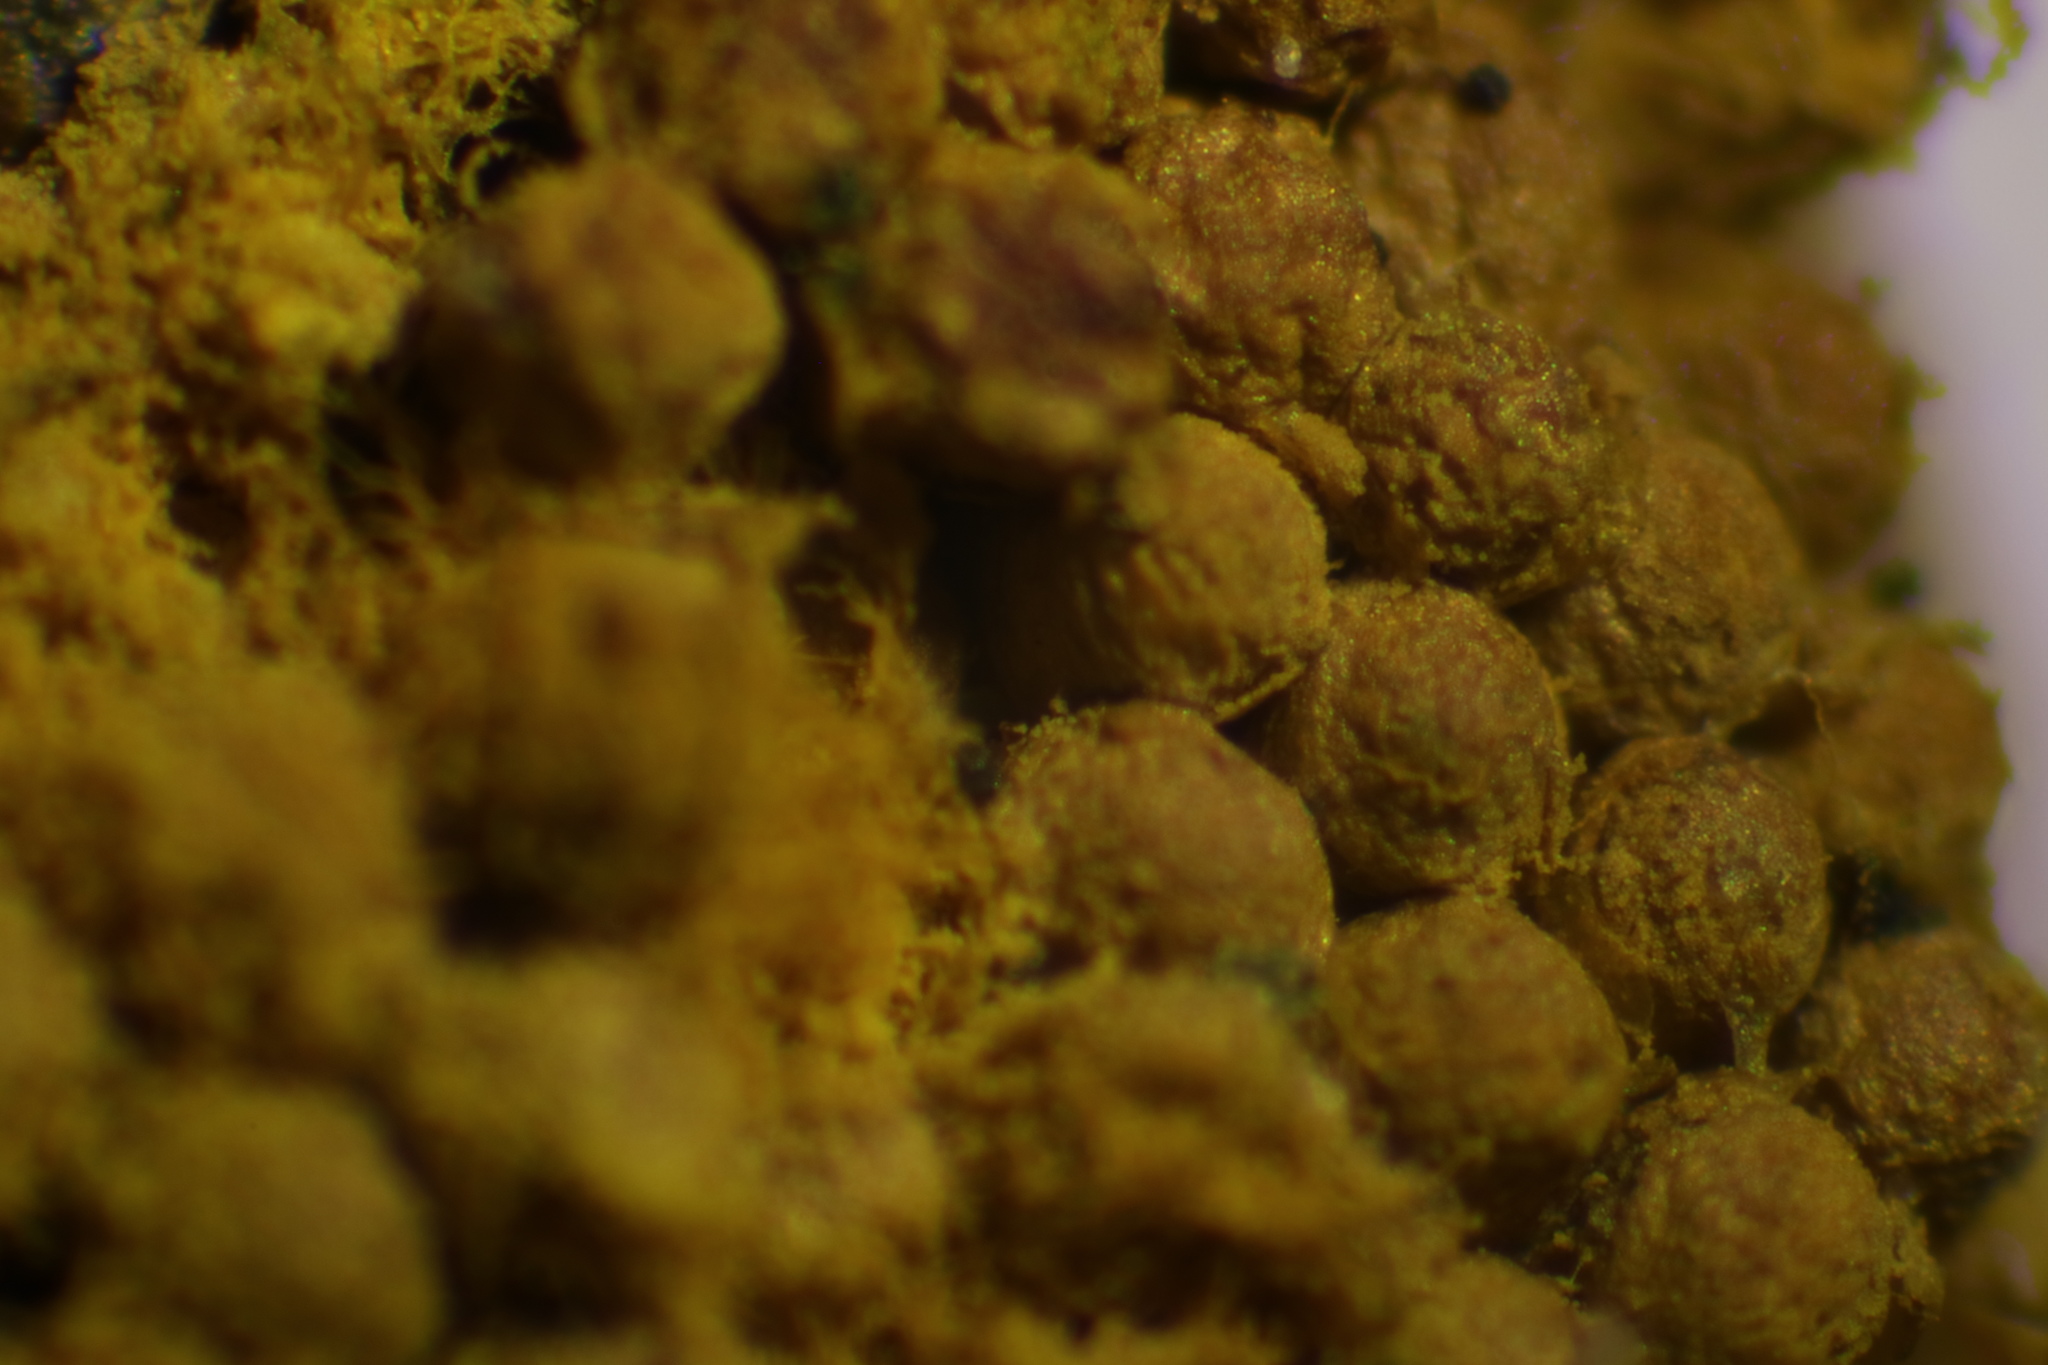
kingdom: Protozoa
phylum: Mycetozoa
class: Myxomycetes
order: Trichiales
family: Trichiaceae
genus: Oligonema
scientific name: Oligonema favogineum
